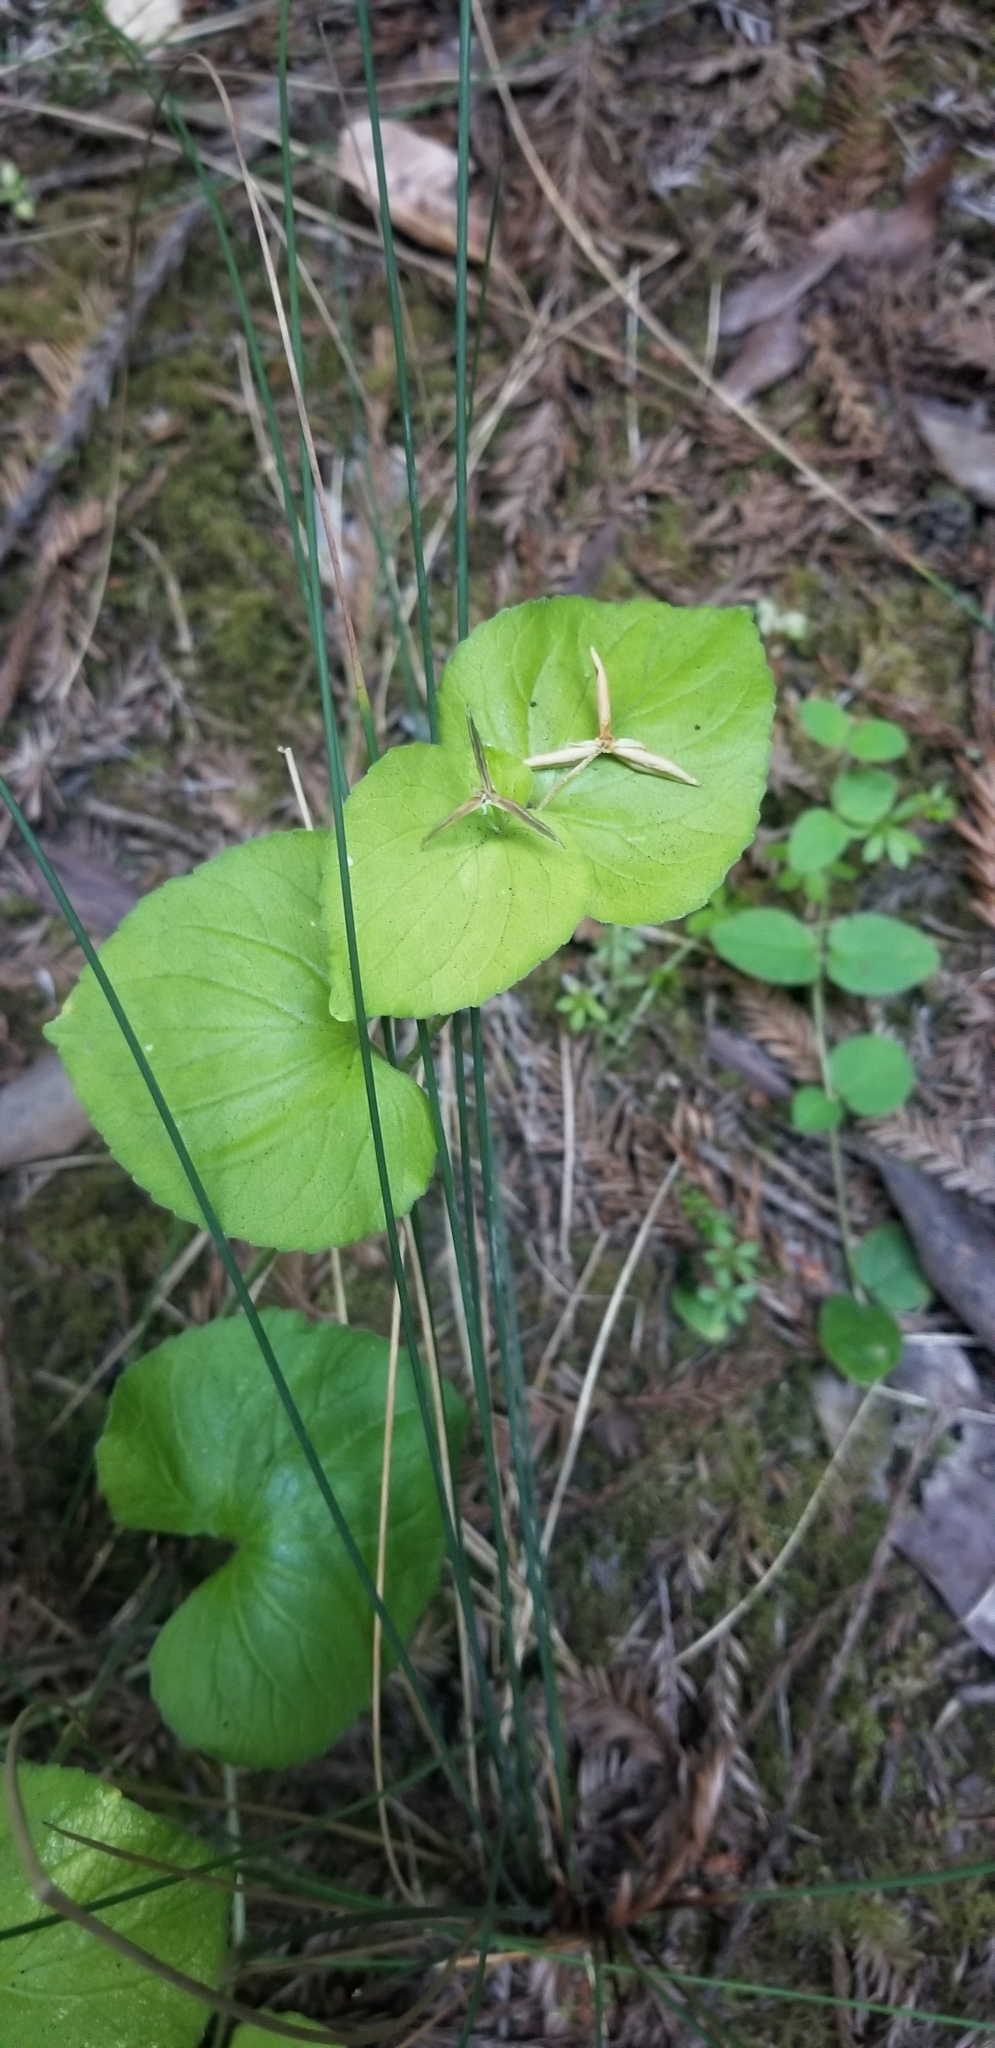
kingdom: Plantae
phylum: Tracheophyta
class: Magnoliopsida
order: Malpighiales
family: Violaceae
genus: Viola
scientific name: Viola glabella
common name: Stream violet
